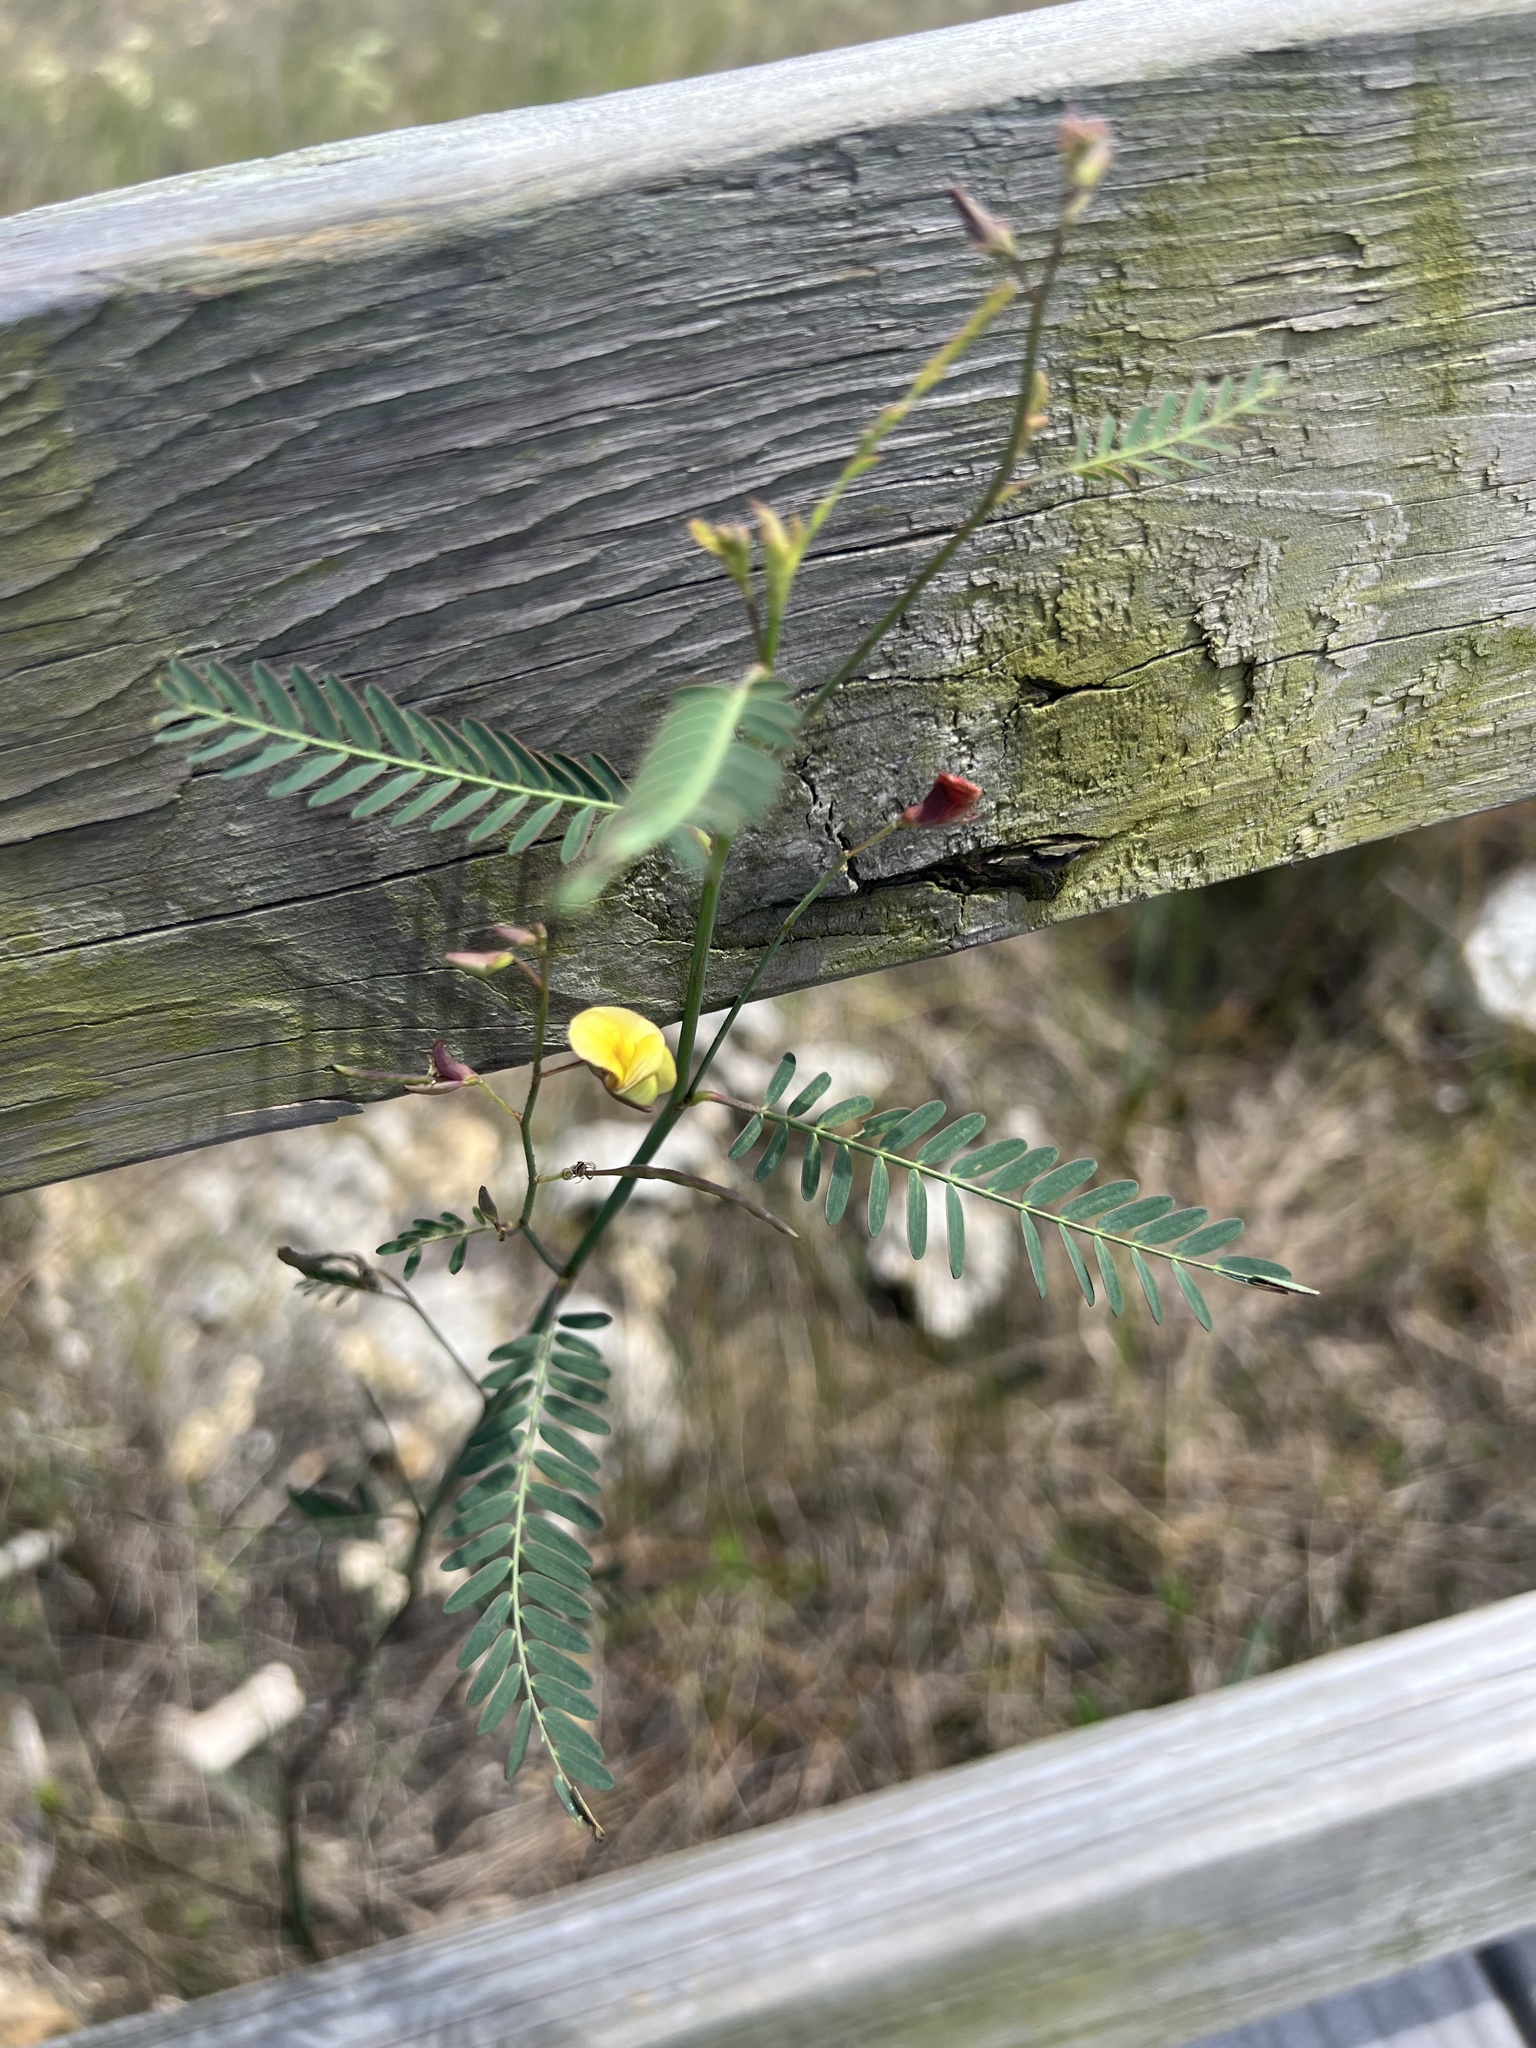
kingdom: Plantae
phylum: Tracheophyta
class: Magnoliopsida
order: Fabales
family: Fabaceae
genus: Sesbania
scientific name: Sesbania herbacea
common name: Bigpod sesbania
